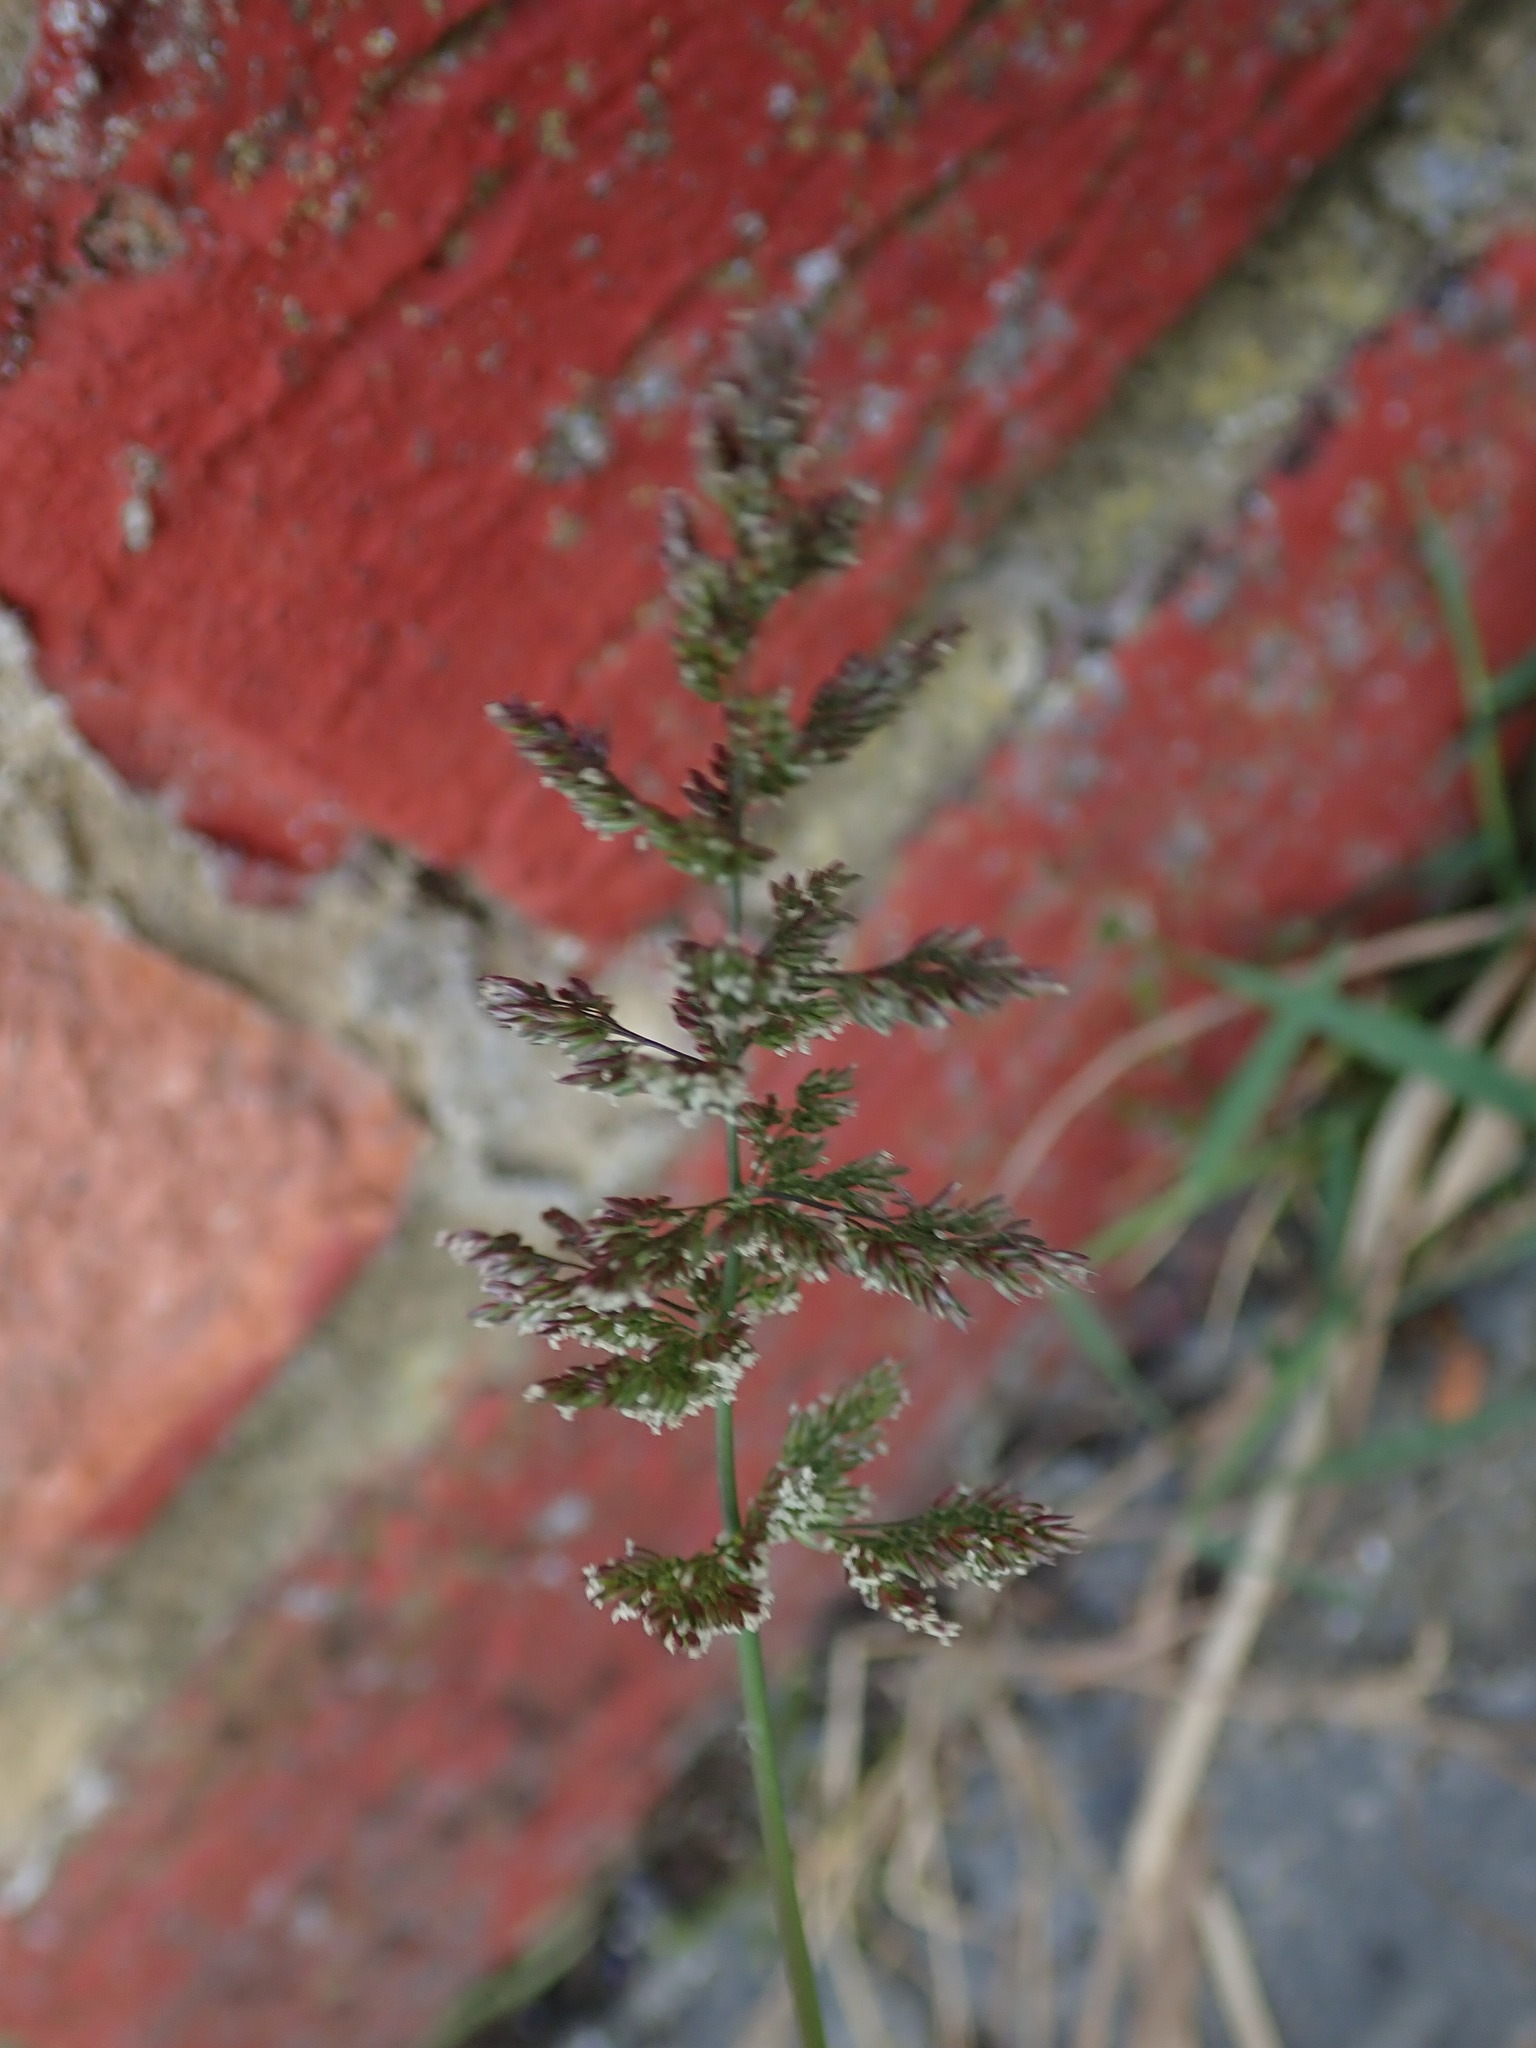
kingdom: Plantae
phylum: Tracheophyta
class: Liliopsida
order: Poales
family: Poaceae
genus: Polypogon
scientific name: Polypogon viridis
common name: Water bent
